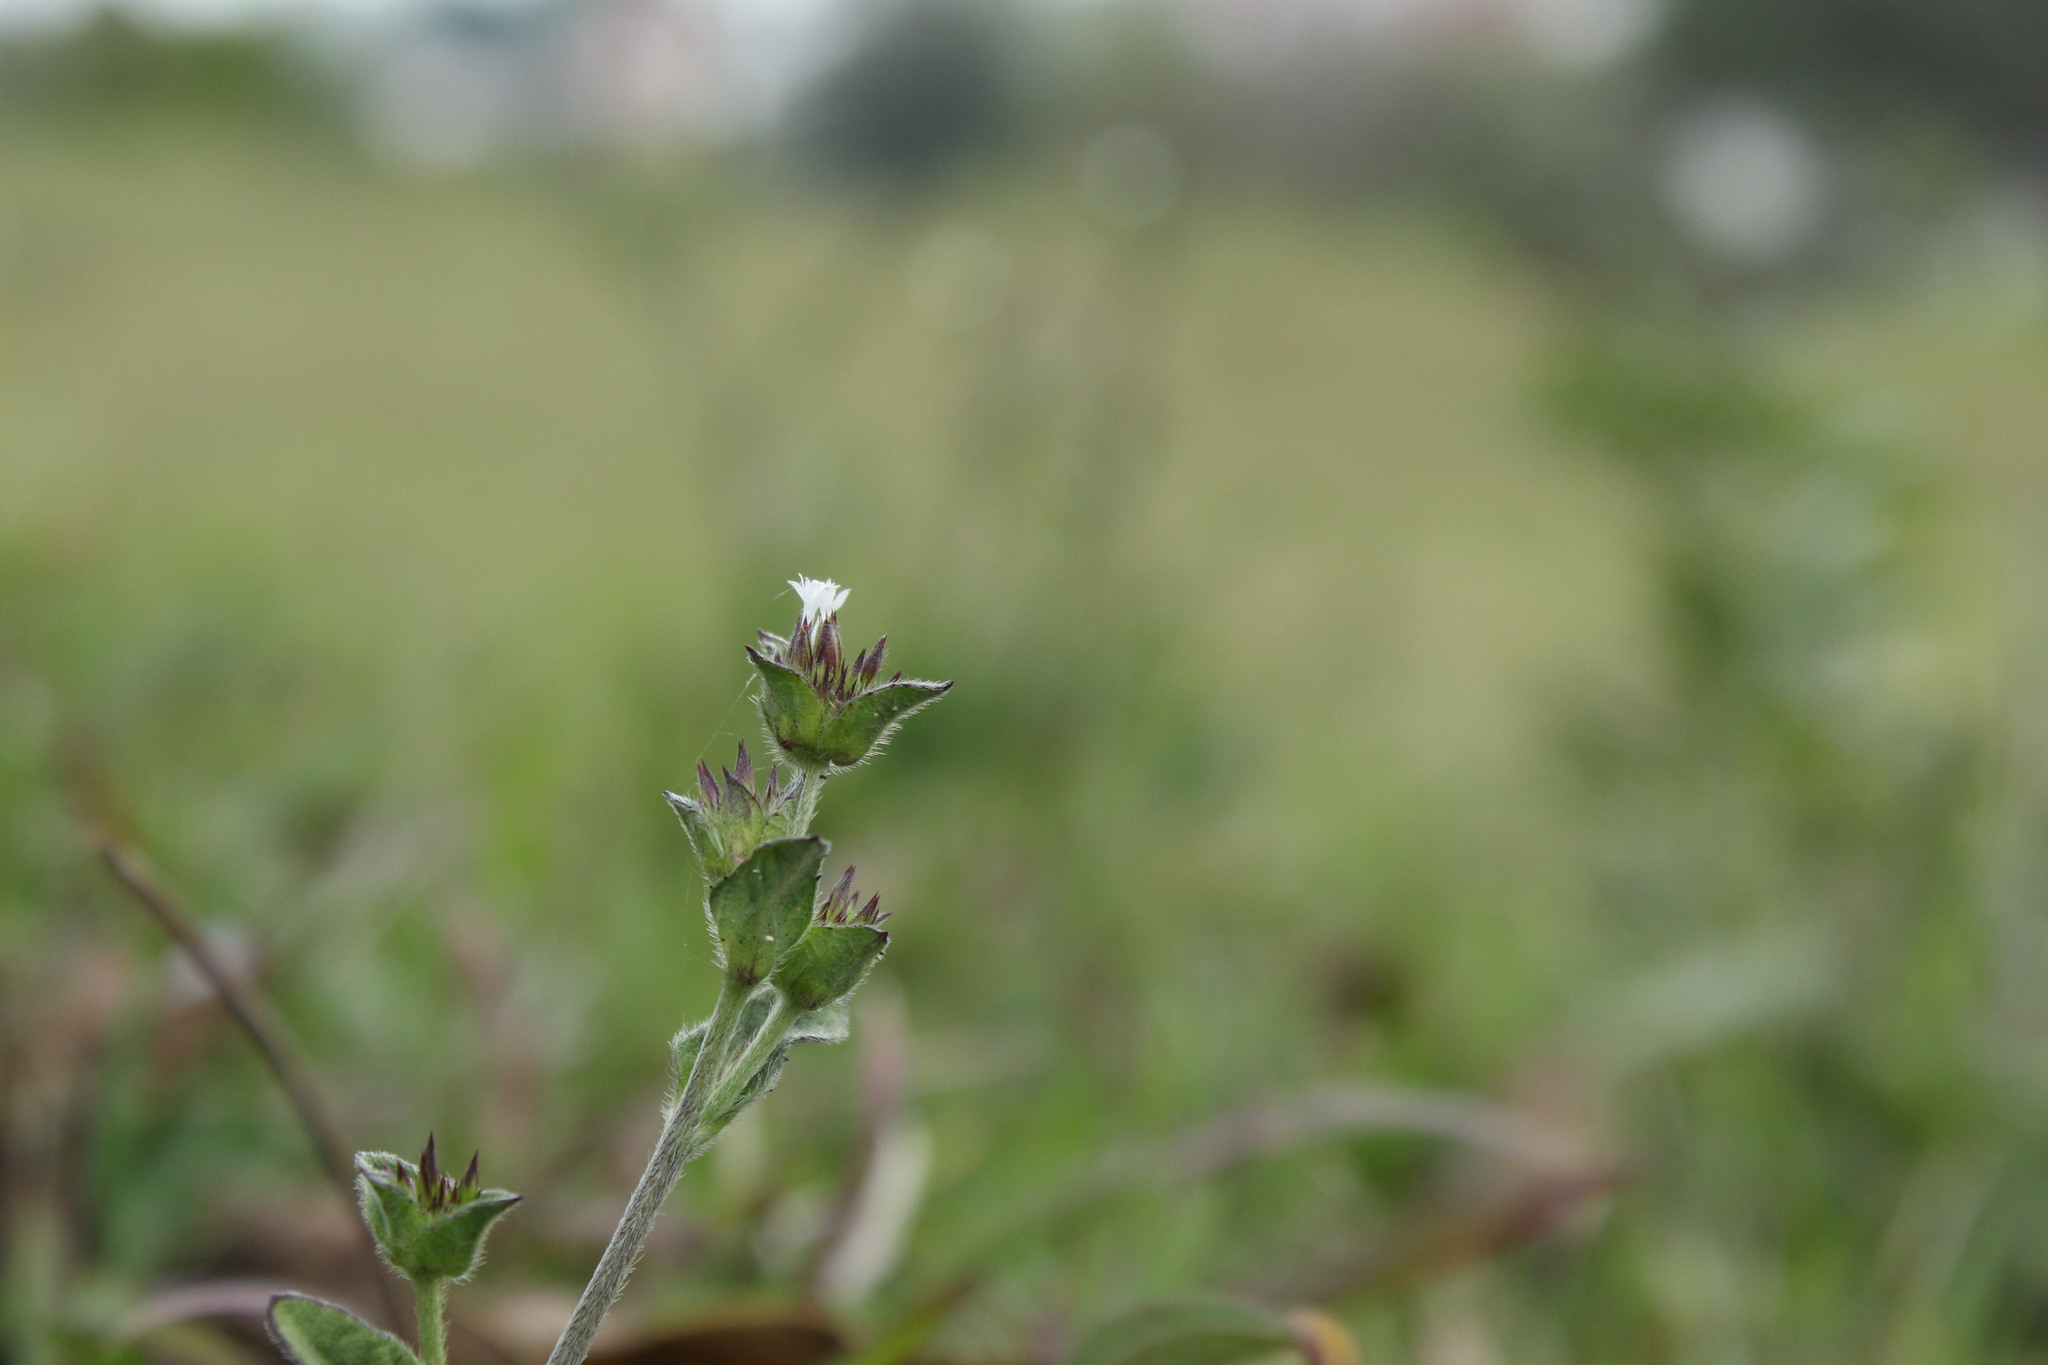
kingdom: Plantae
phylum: Tracheophyta
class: Magnoliopsida
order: Asterales
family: Asteraceae
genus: Elephantopus
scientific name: Elephantopus mollis
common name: Soft elephantsfoot
